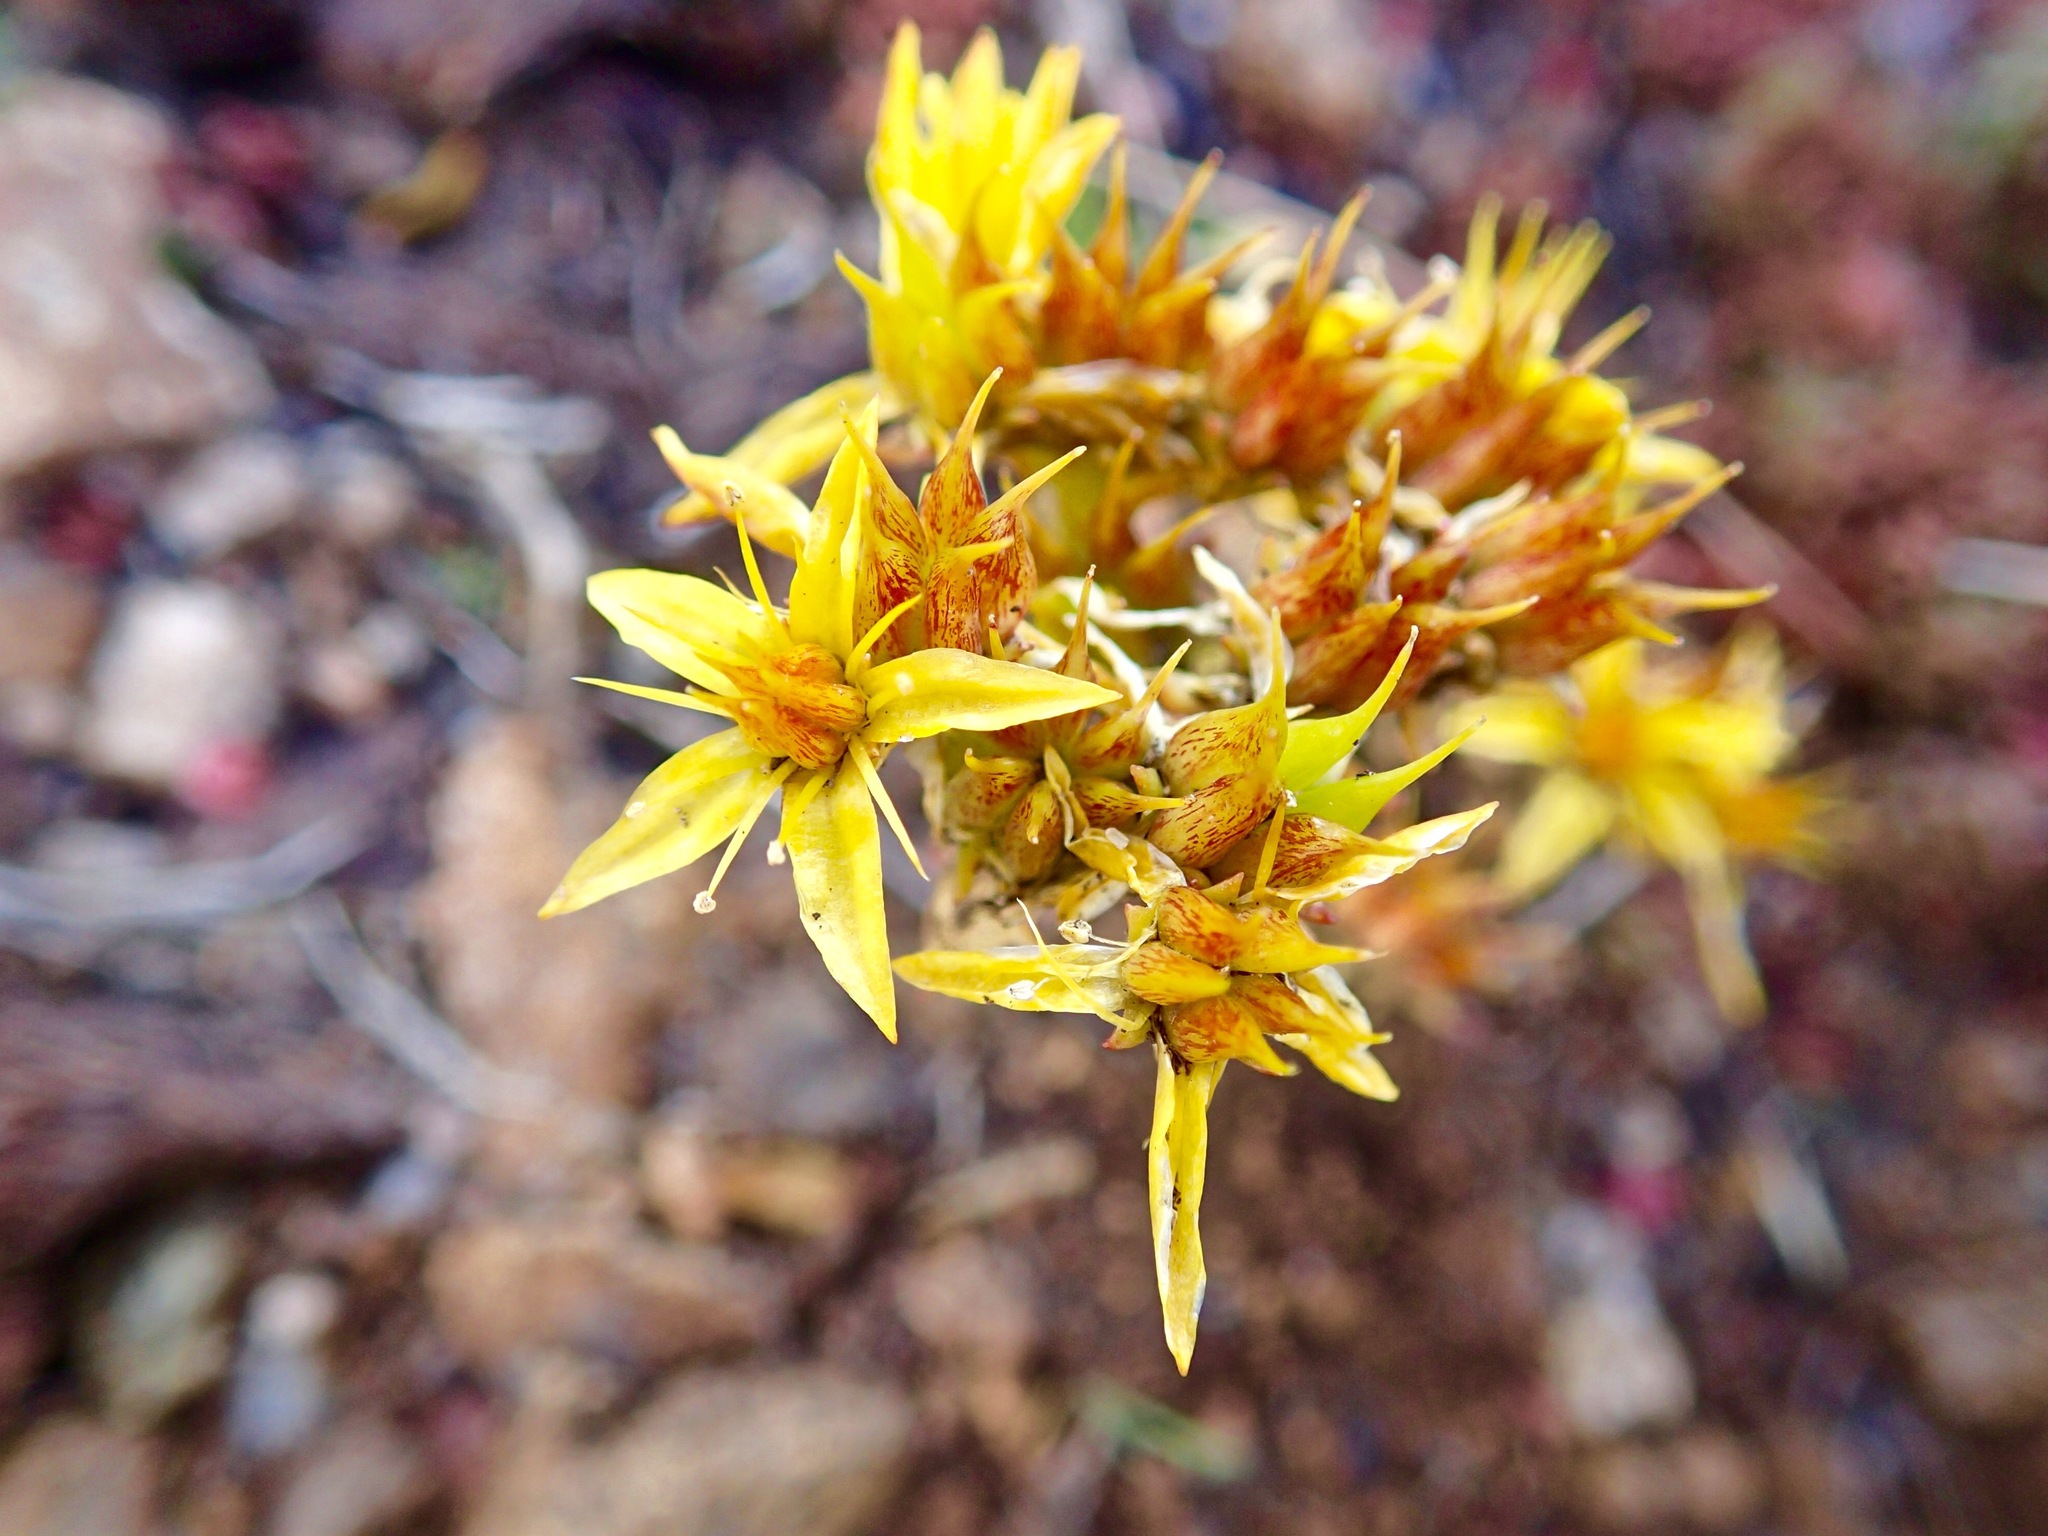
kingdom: Plantae
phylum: Tracheophyta
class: Magnoliopsida
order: Saxifragales
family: Crassulaceae
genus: Sedum
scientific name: Sedum lanceolatum
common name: Common stonecrop
